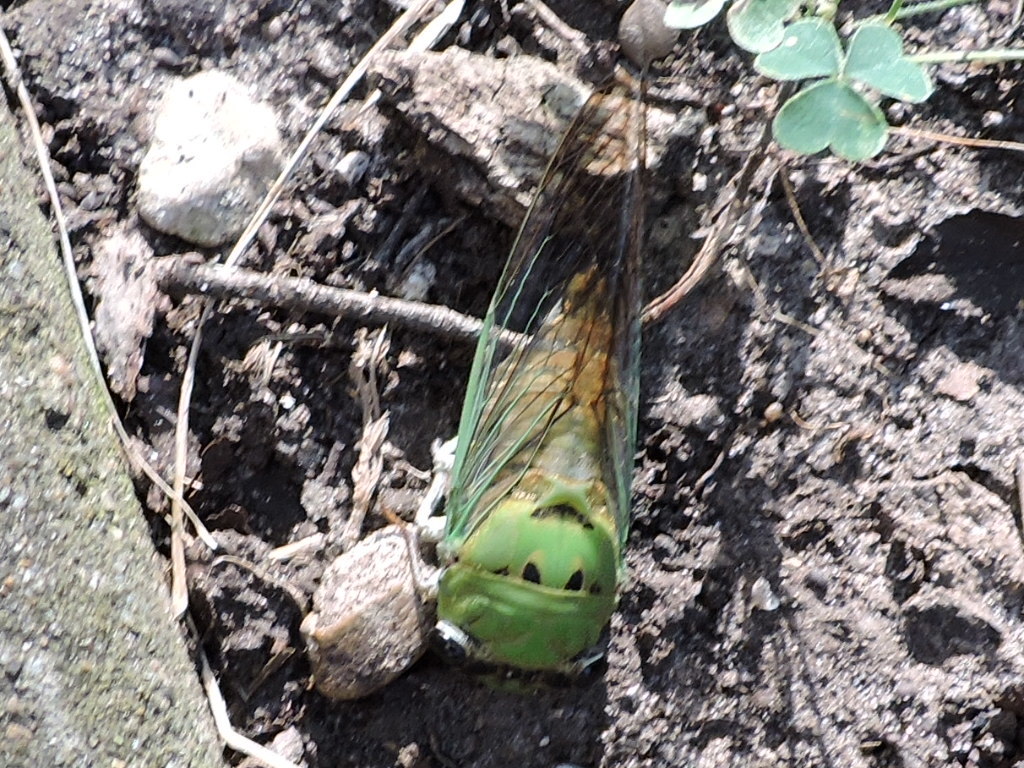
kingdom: Animalia
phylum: Arthropoda
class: Insecta
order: Hemiptera
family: Cicadidae
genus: Neotibicen
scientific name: Neotibicen superbus
